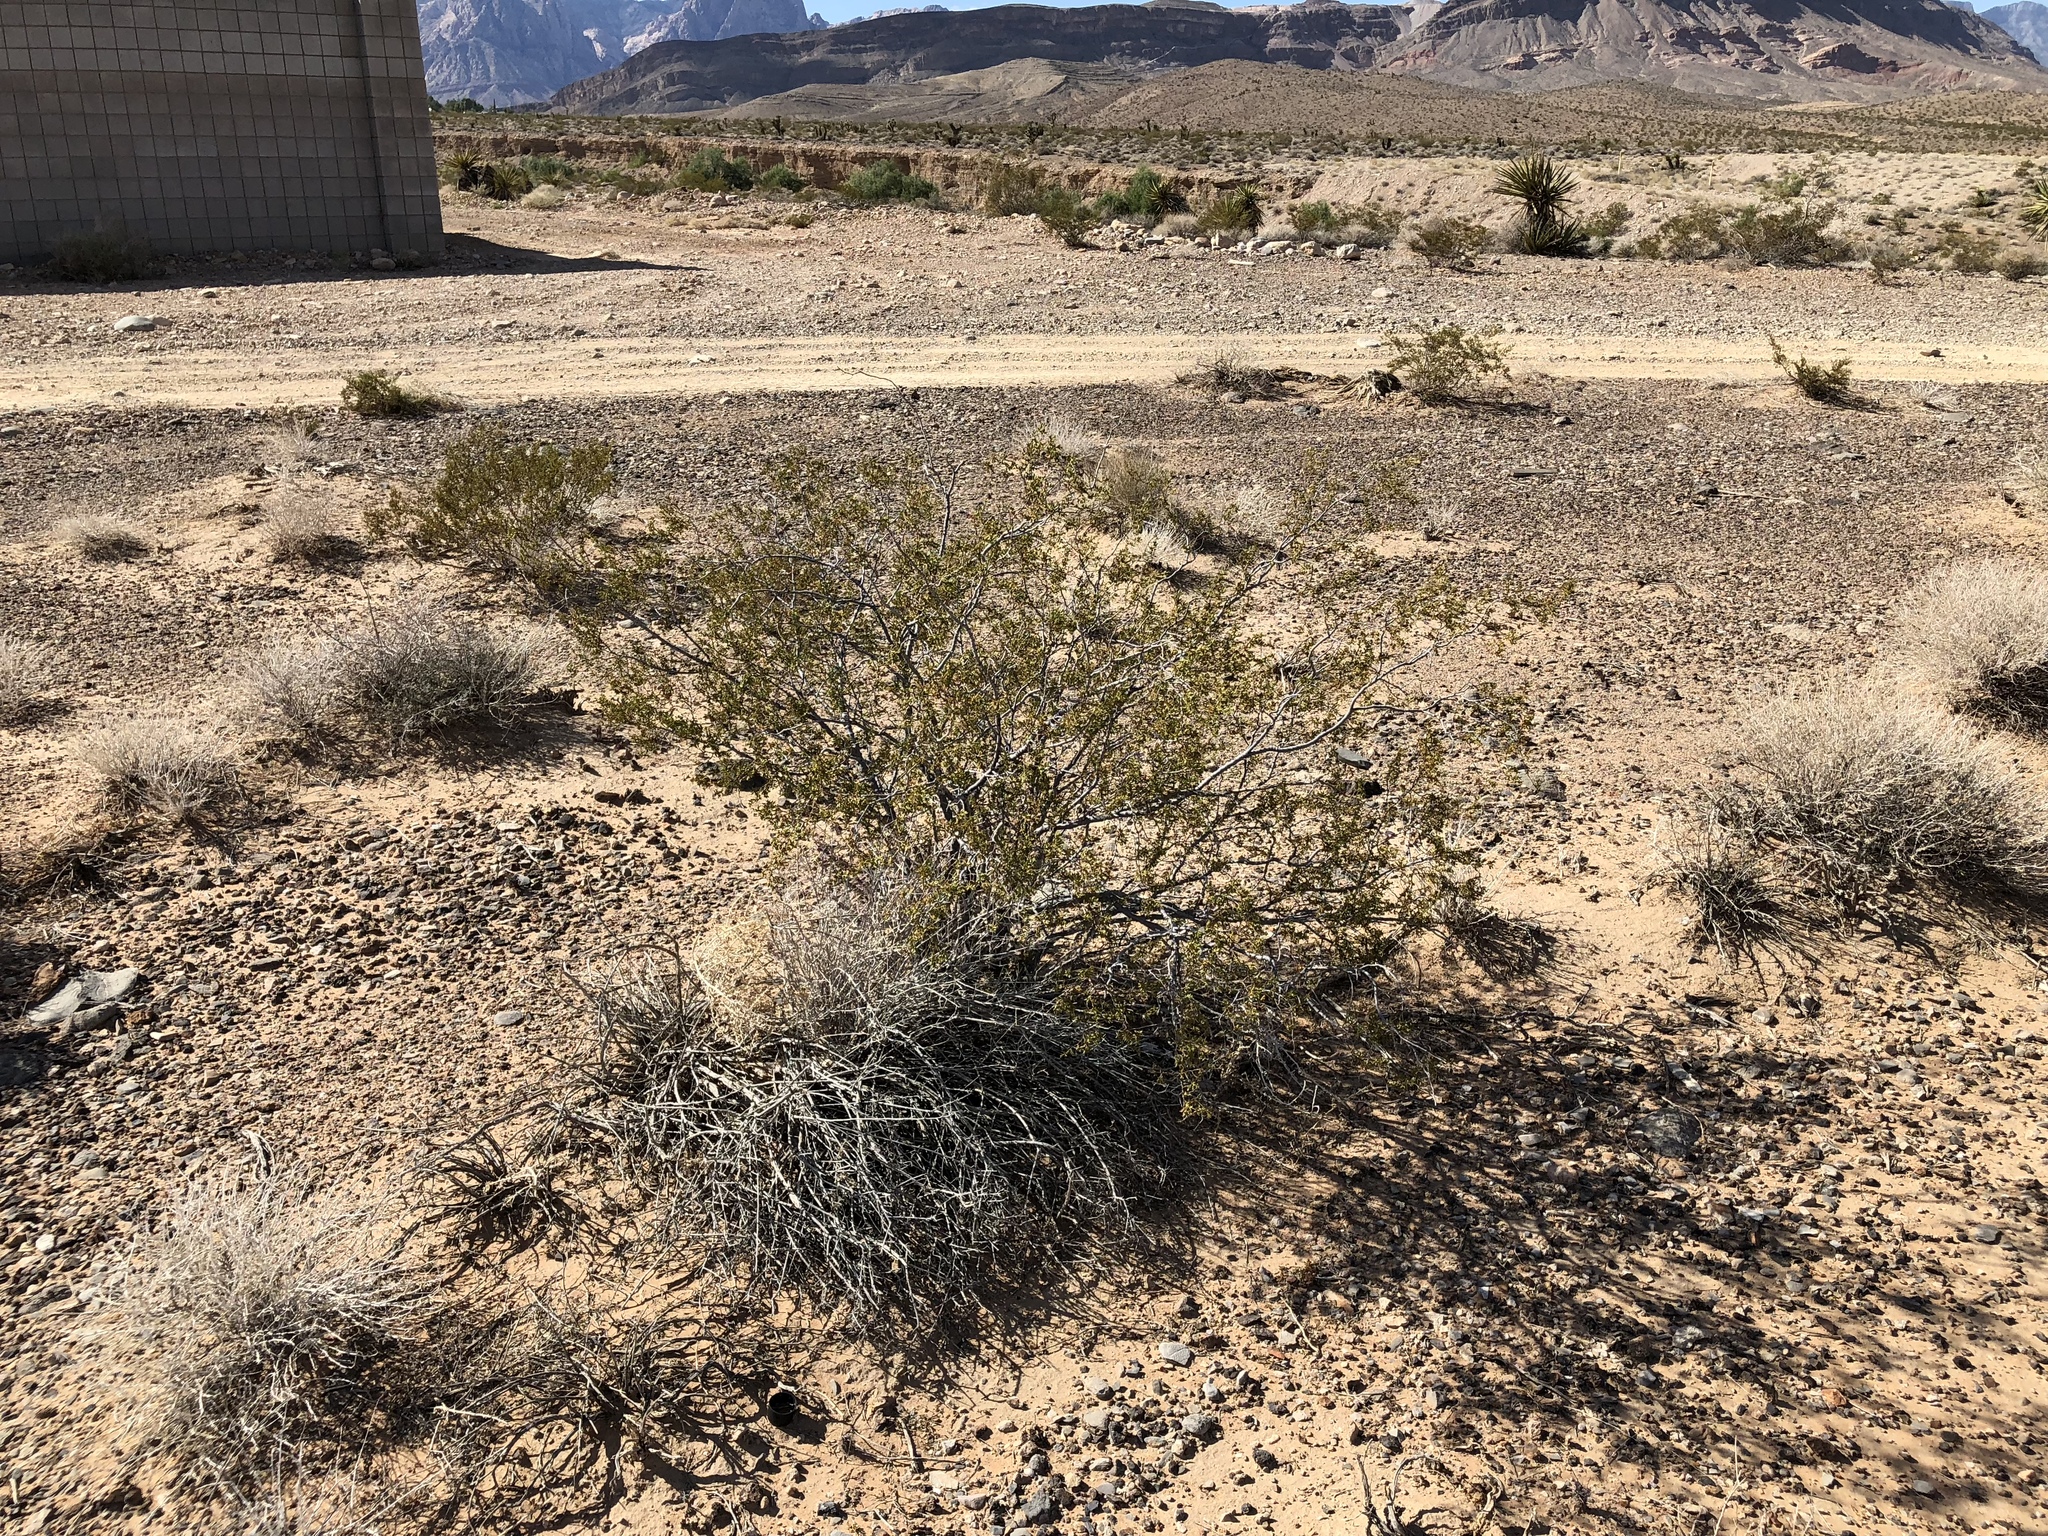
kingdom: Plantae
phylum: Tracheophyta
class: Magnoliopsida
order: Zygophyllales
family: Zygophyllaceae
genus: Larrea
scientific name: Larrea tridentata
